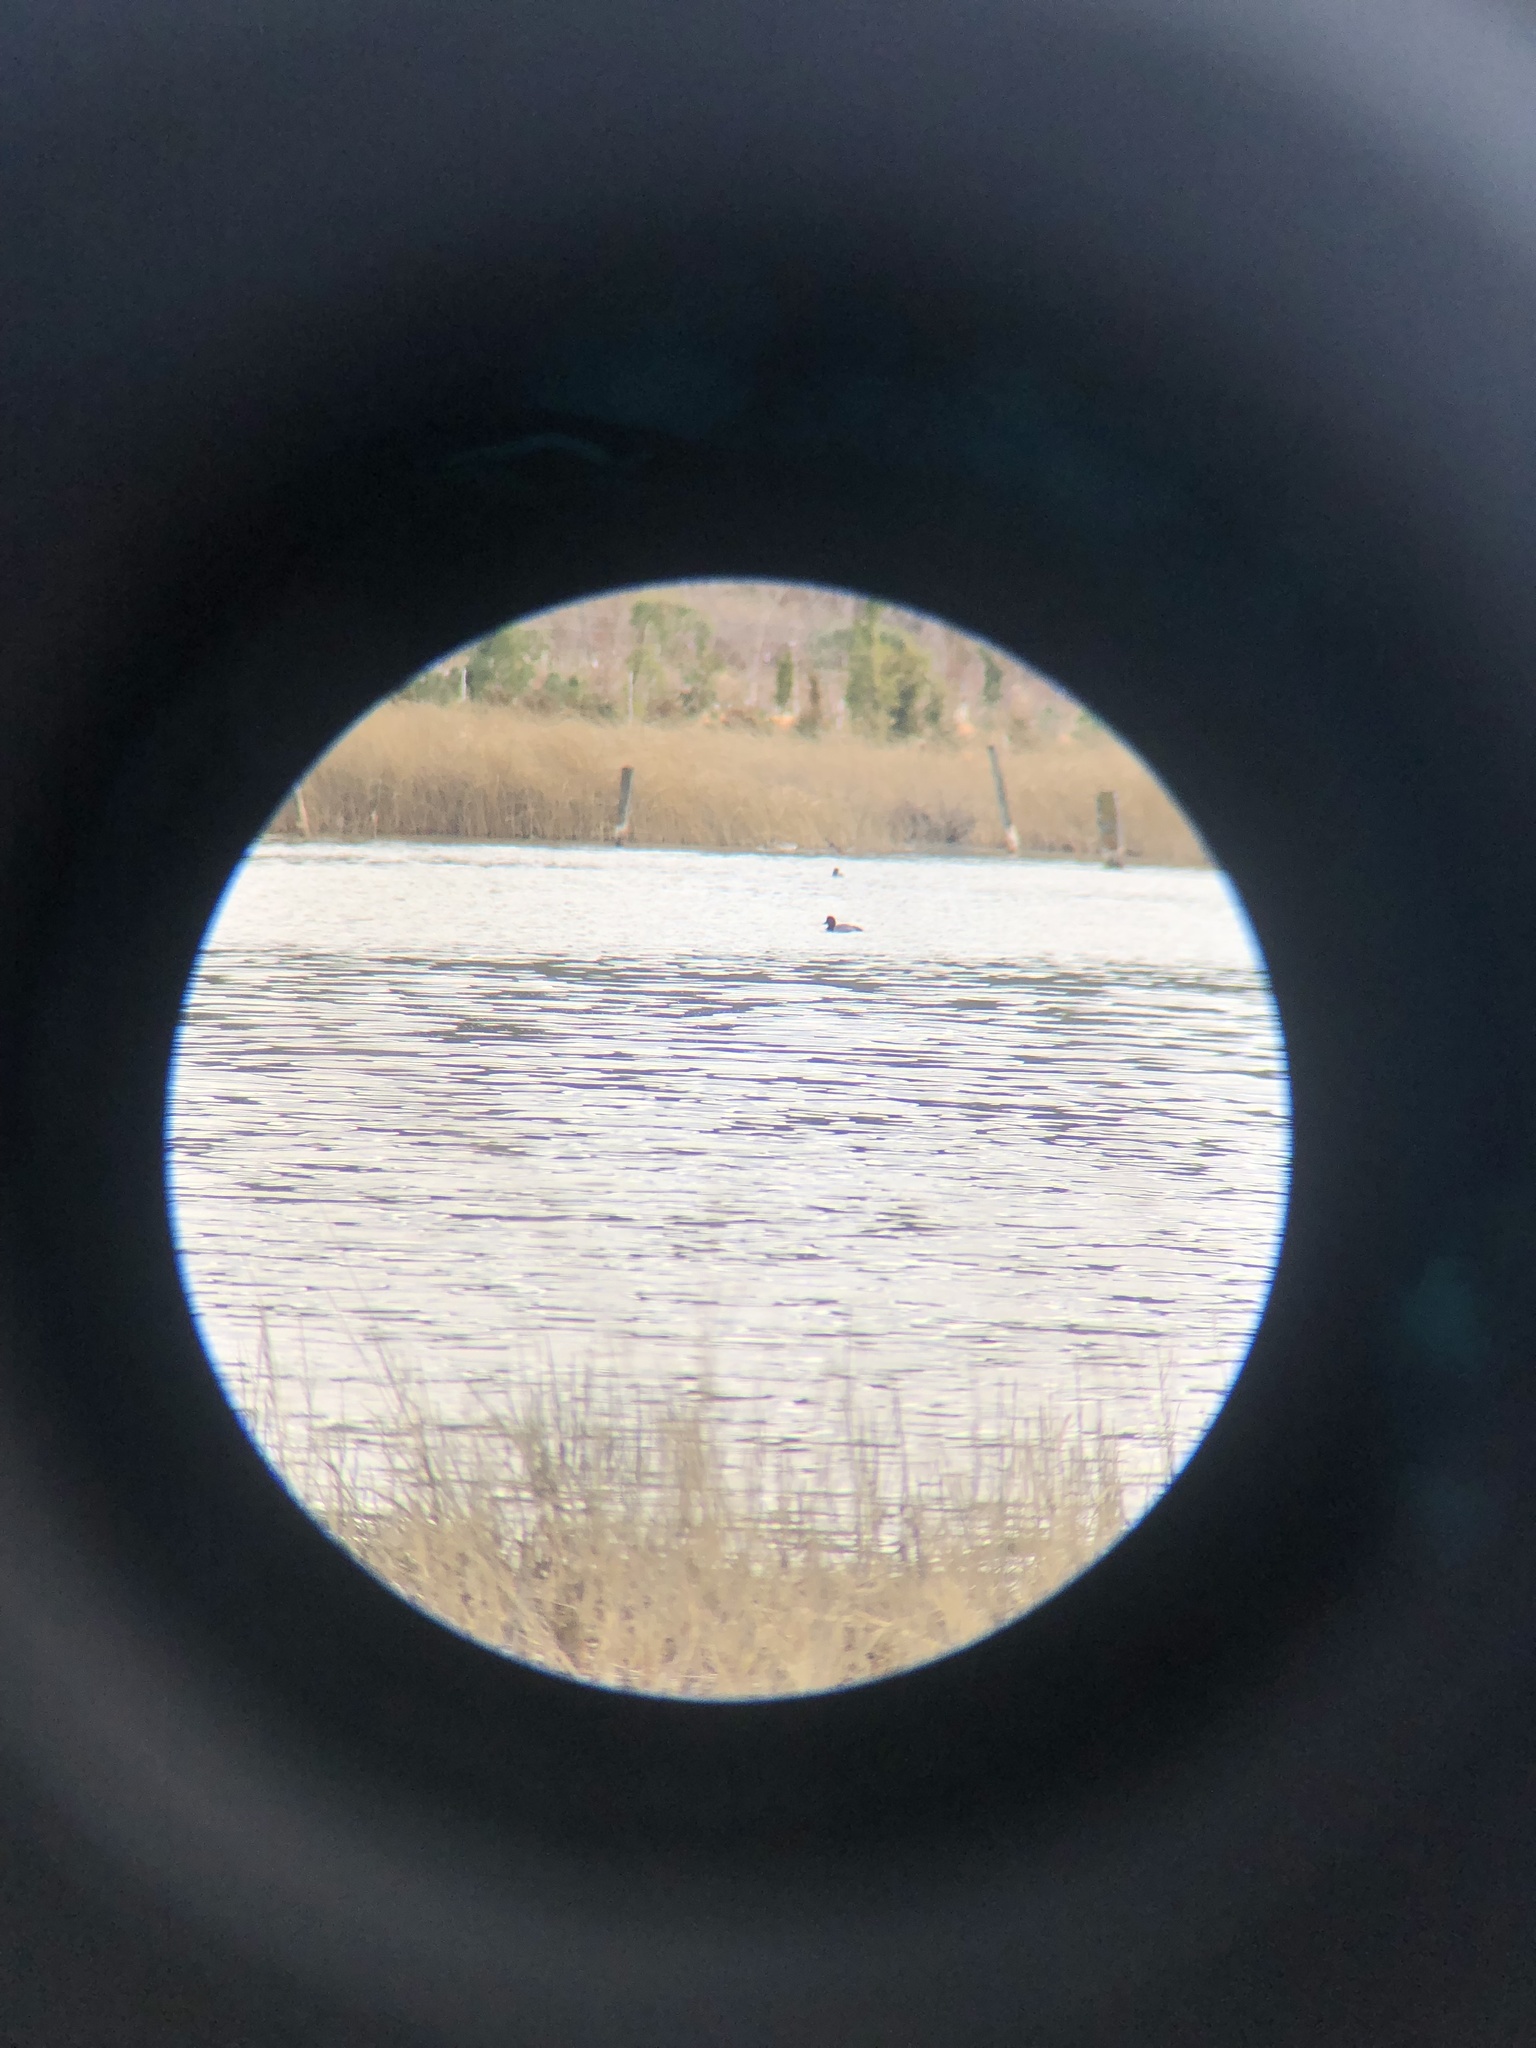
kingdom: Animalia
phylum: Chordata
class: Aves
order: Anseriformes
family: Anatidae
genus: Aythya
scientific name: Aythya americana
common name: Redhead
